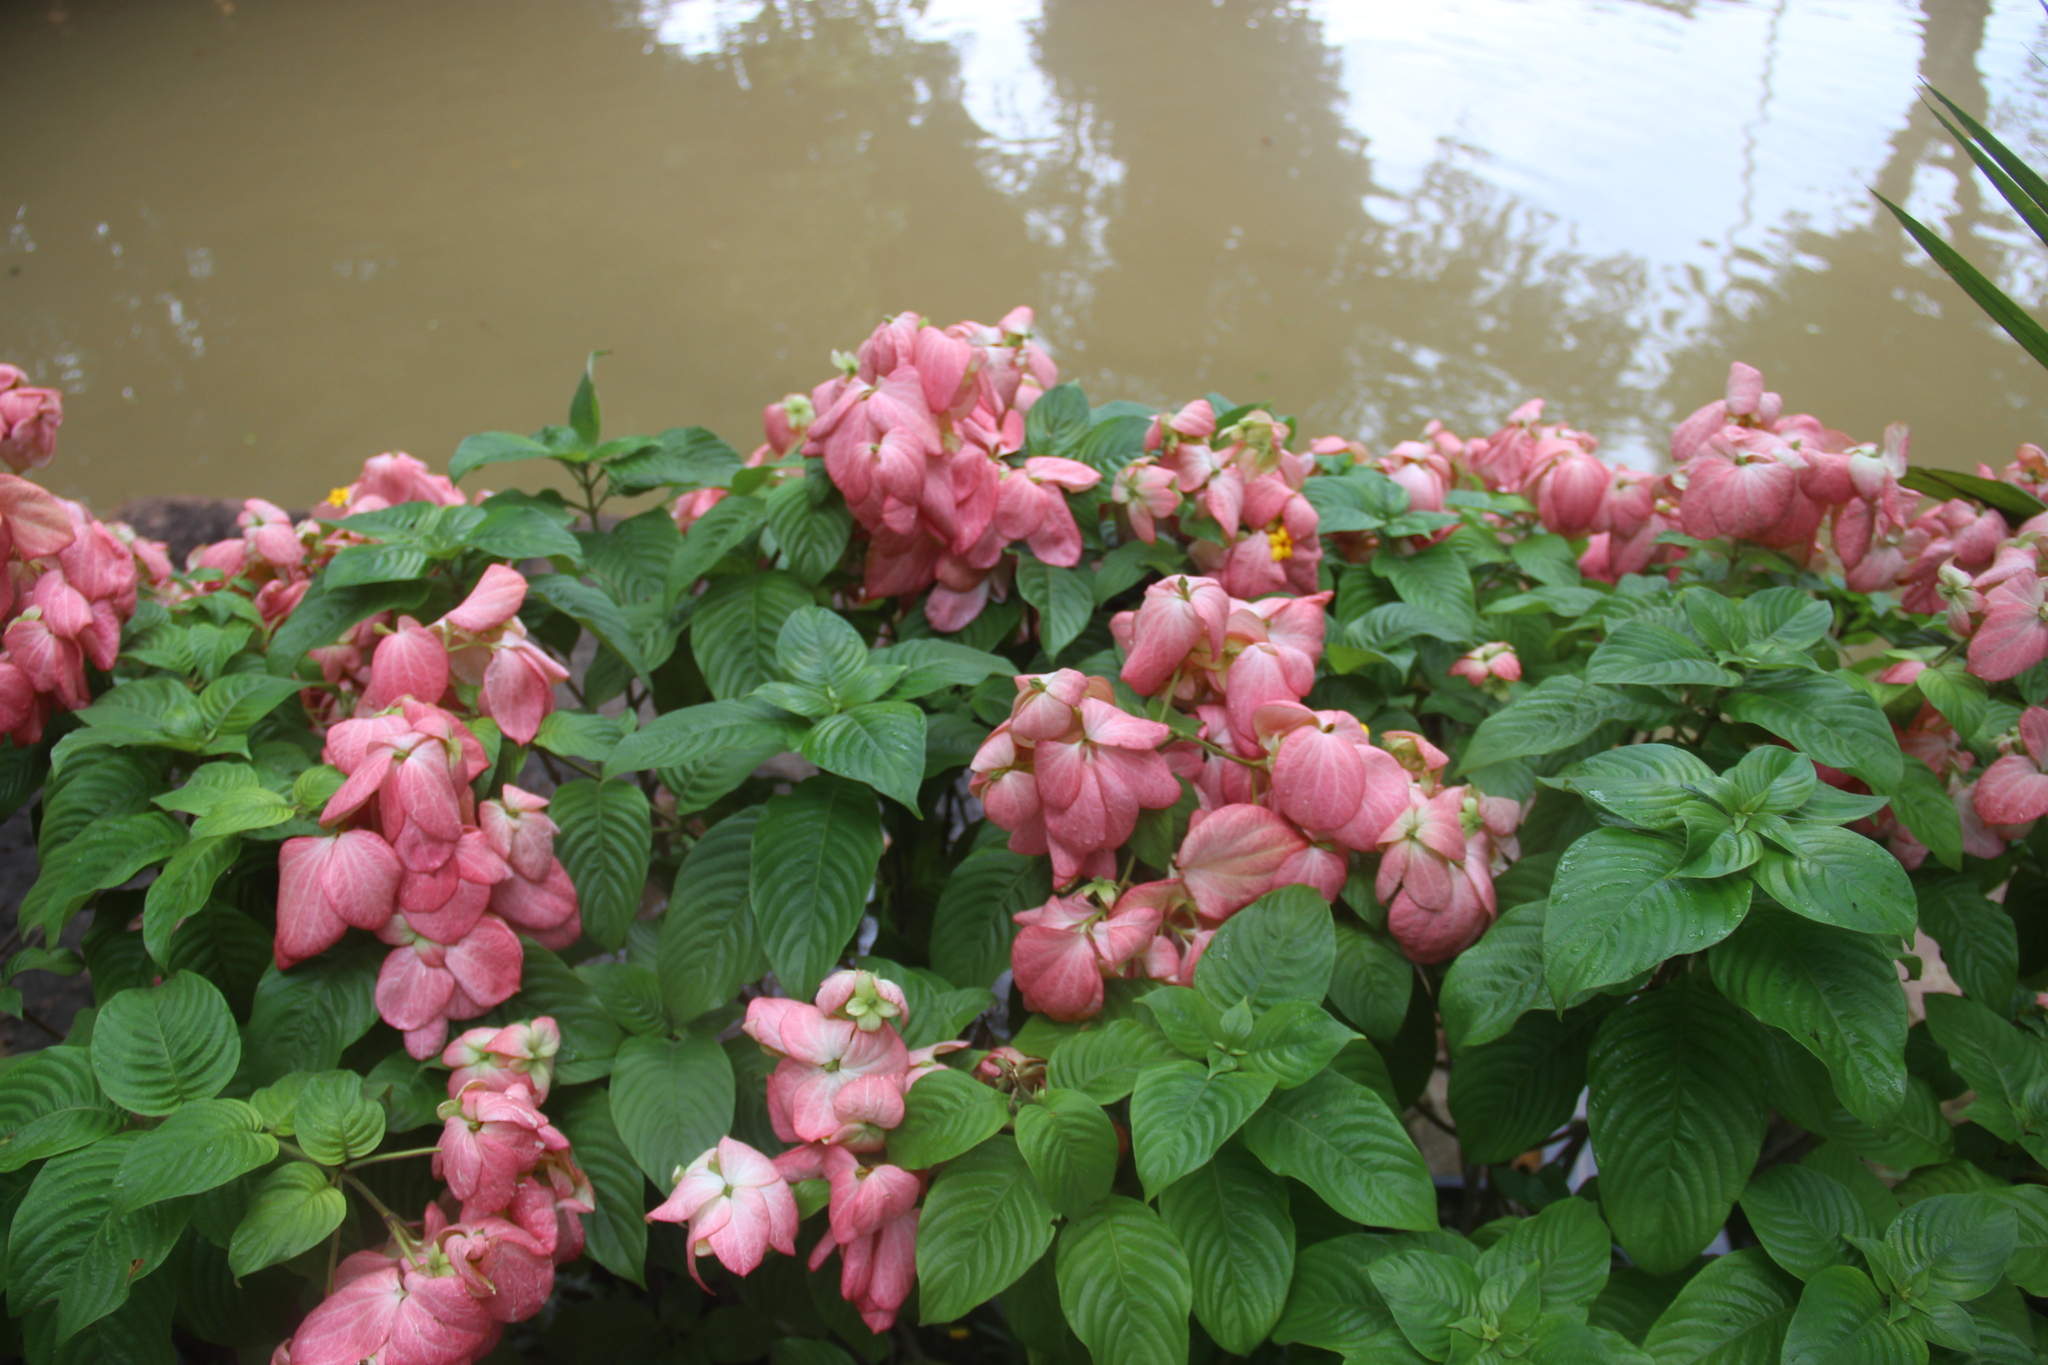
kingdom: Plantae
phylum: Tracheophyta
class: Magnoliopsida
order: Gentianales
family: Rubiaceae
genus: Mussaenda
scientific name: Mussaenda philippica
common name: Philippine mussaenda
